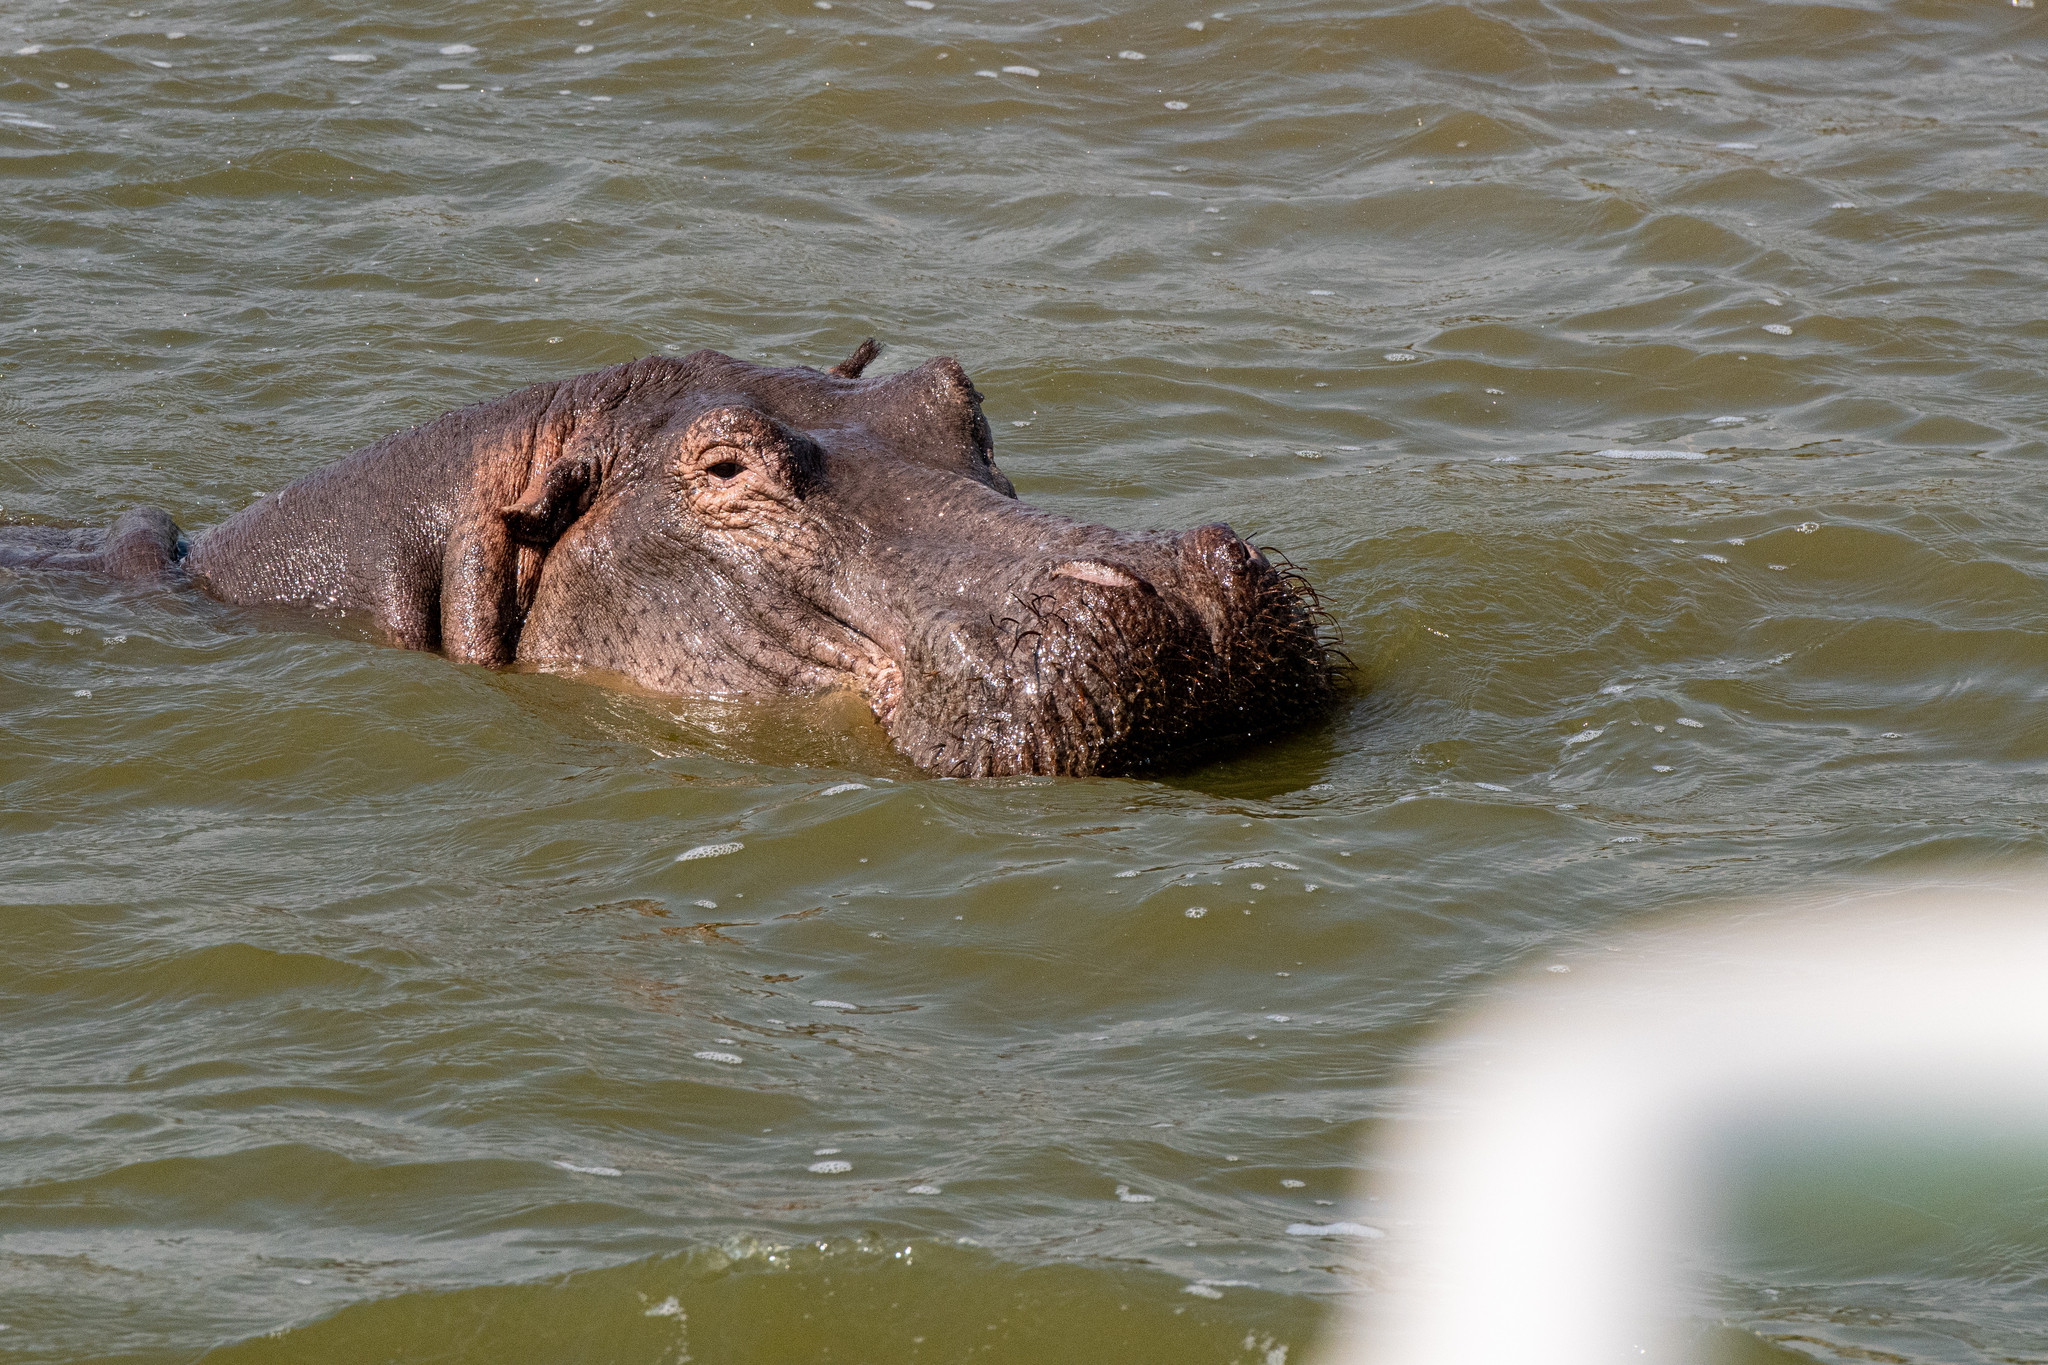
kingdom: Animalia
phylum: Chordata
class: Mammalia
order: Artiodactyla
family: Hippopotamidae
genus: Hippopotamus
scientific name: Hippopotamus amphibius
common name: Common hippopotamus
